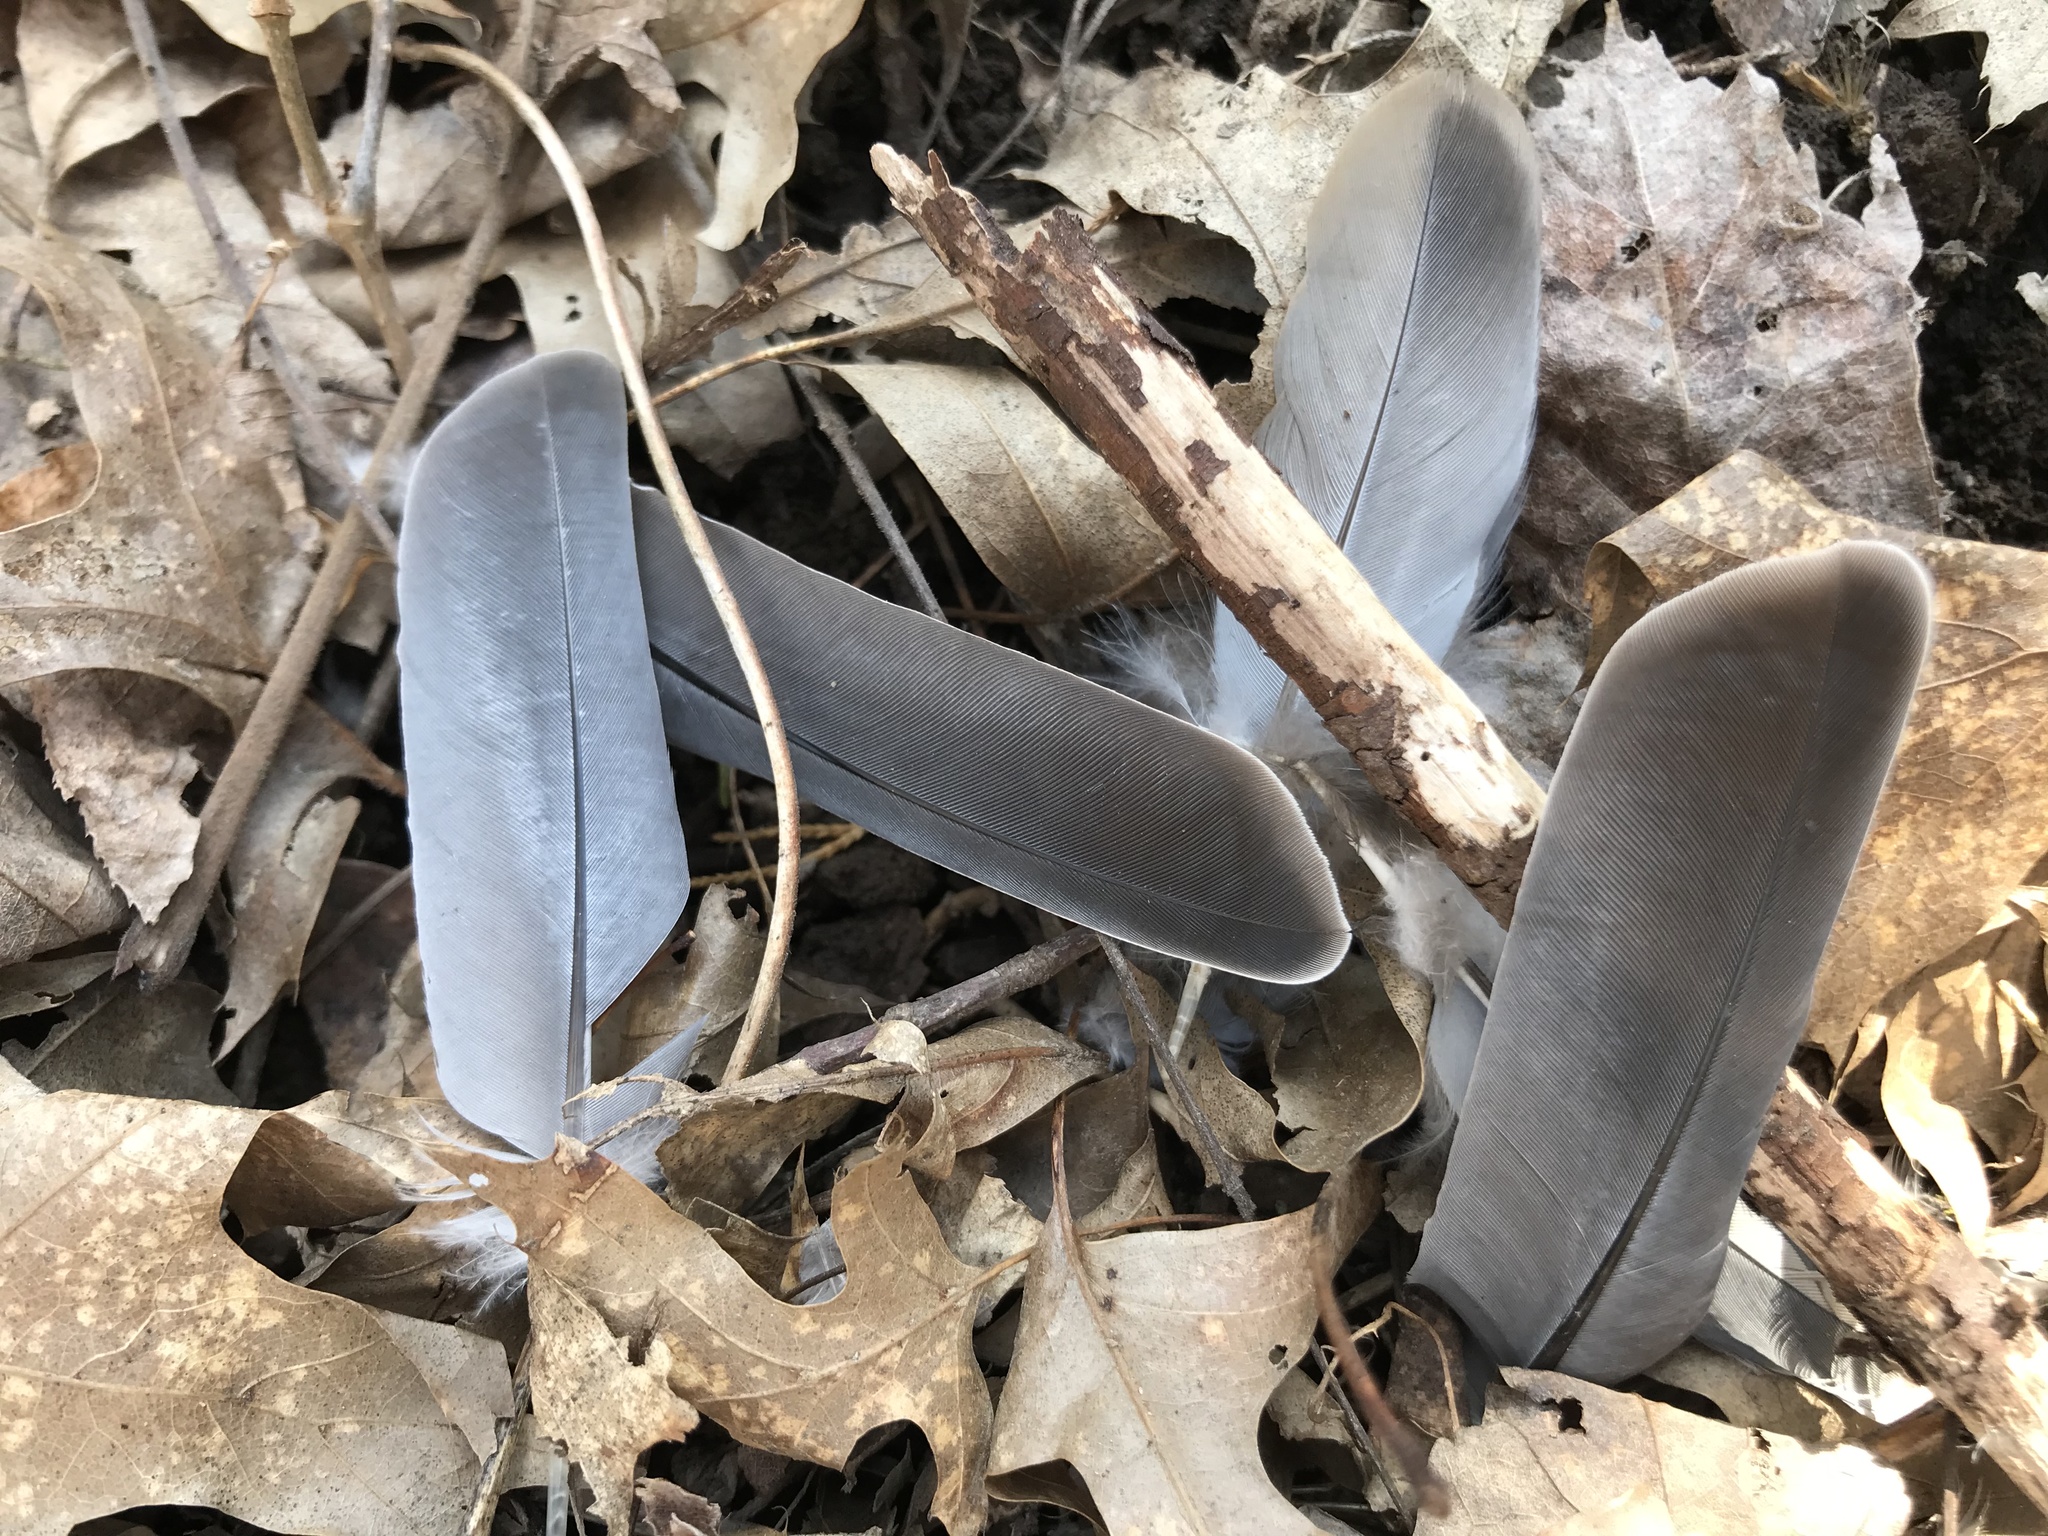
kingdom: Animalia
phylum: Chordata
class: Aves
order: Columbiformes
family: Columbidae
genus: Zenaida
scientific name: Zenaida macroura
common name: Mourning dove
